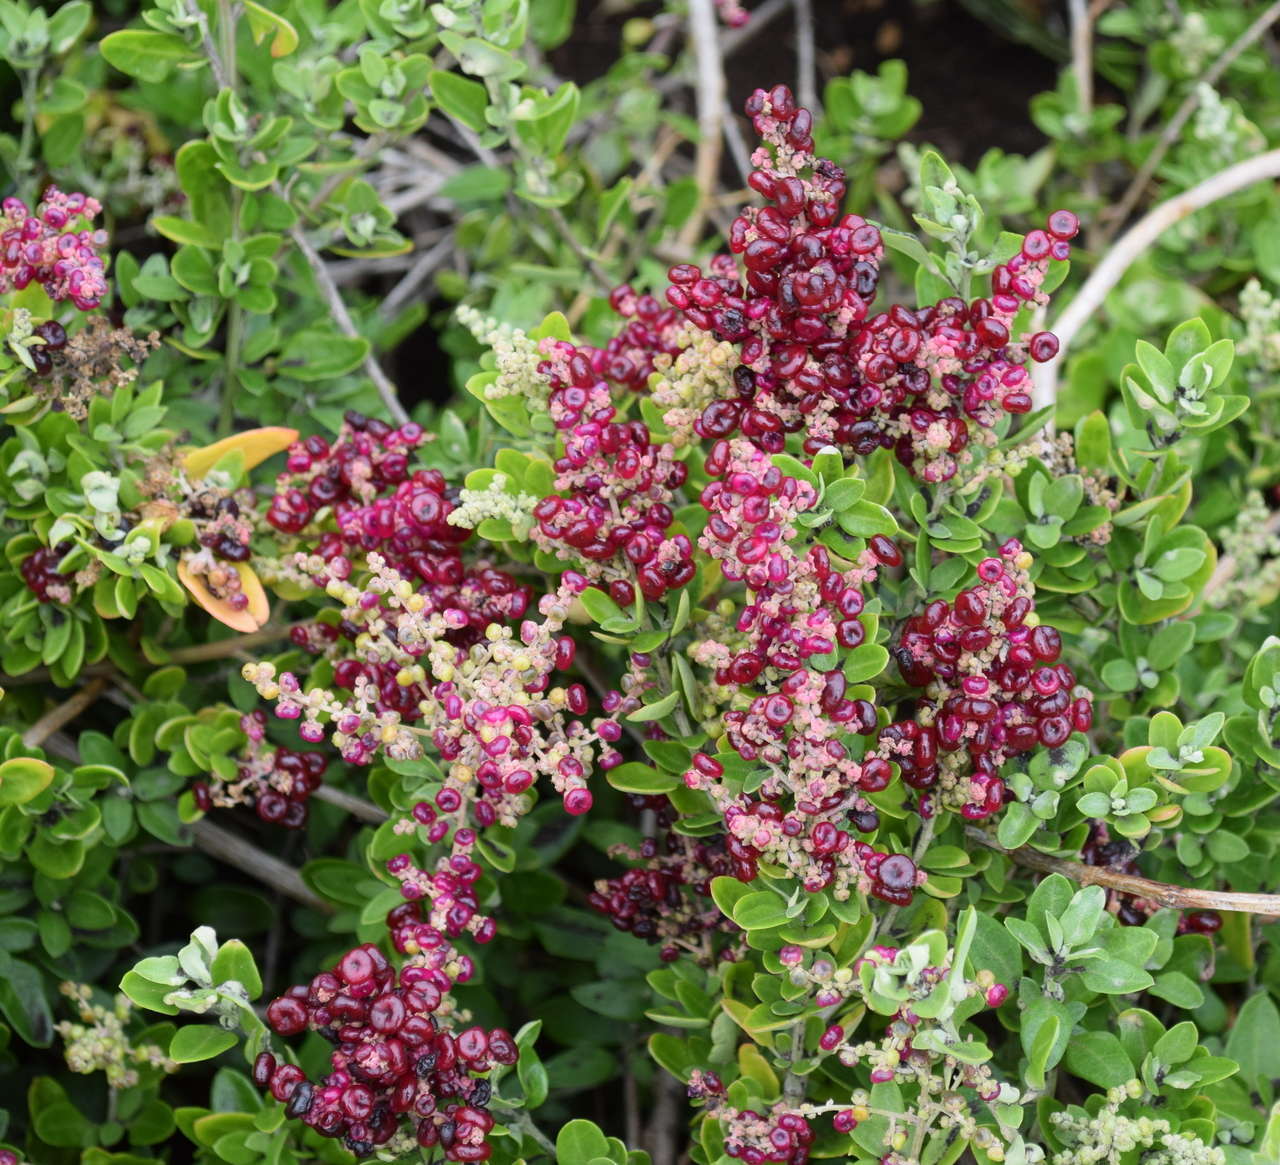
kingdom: Plantae
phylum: Tracheophyta
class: Magnoliopsida
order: Caryophyllales
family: Amaranthaceae
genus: Chenopodium
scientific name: Chenopodium candolleanum
